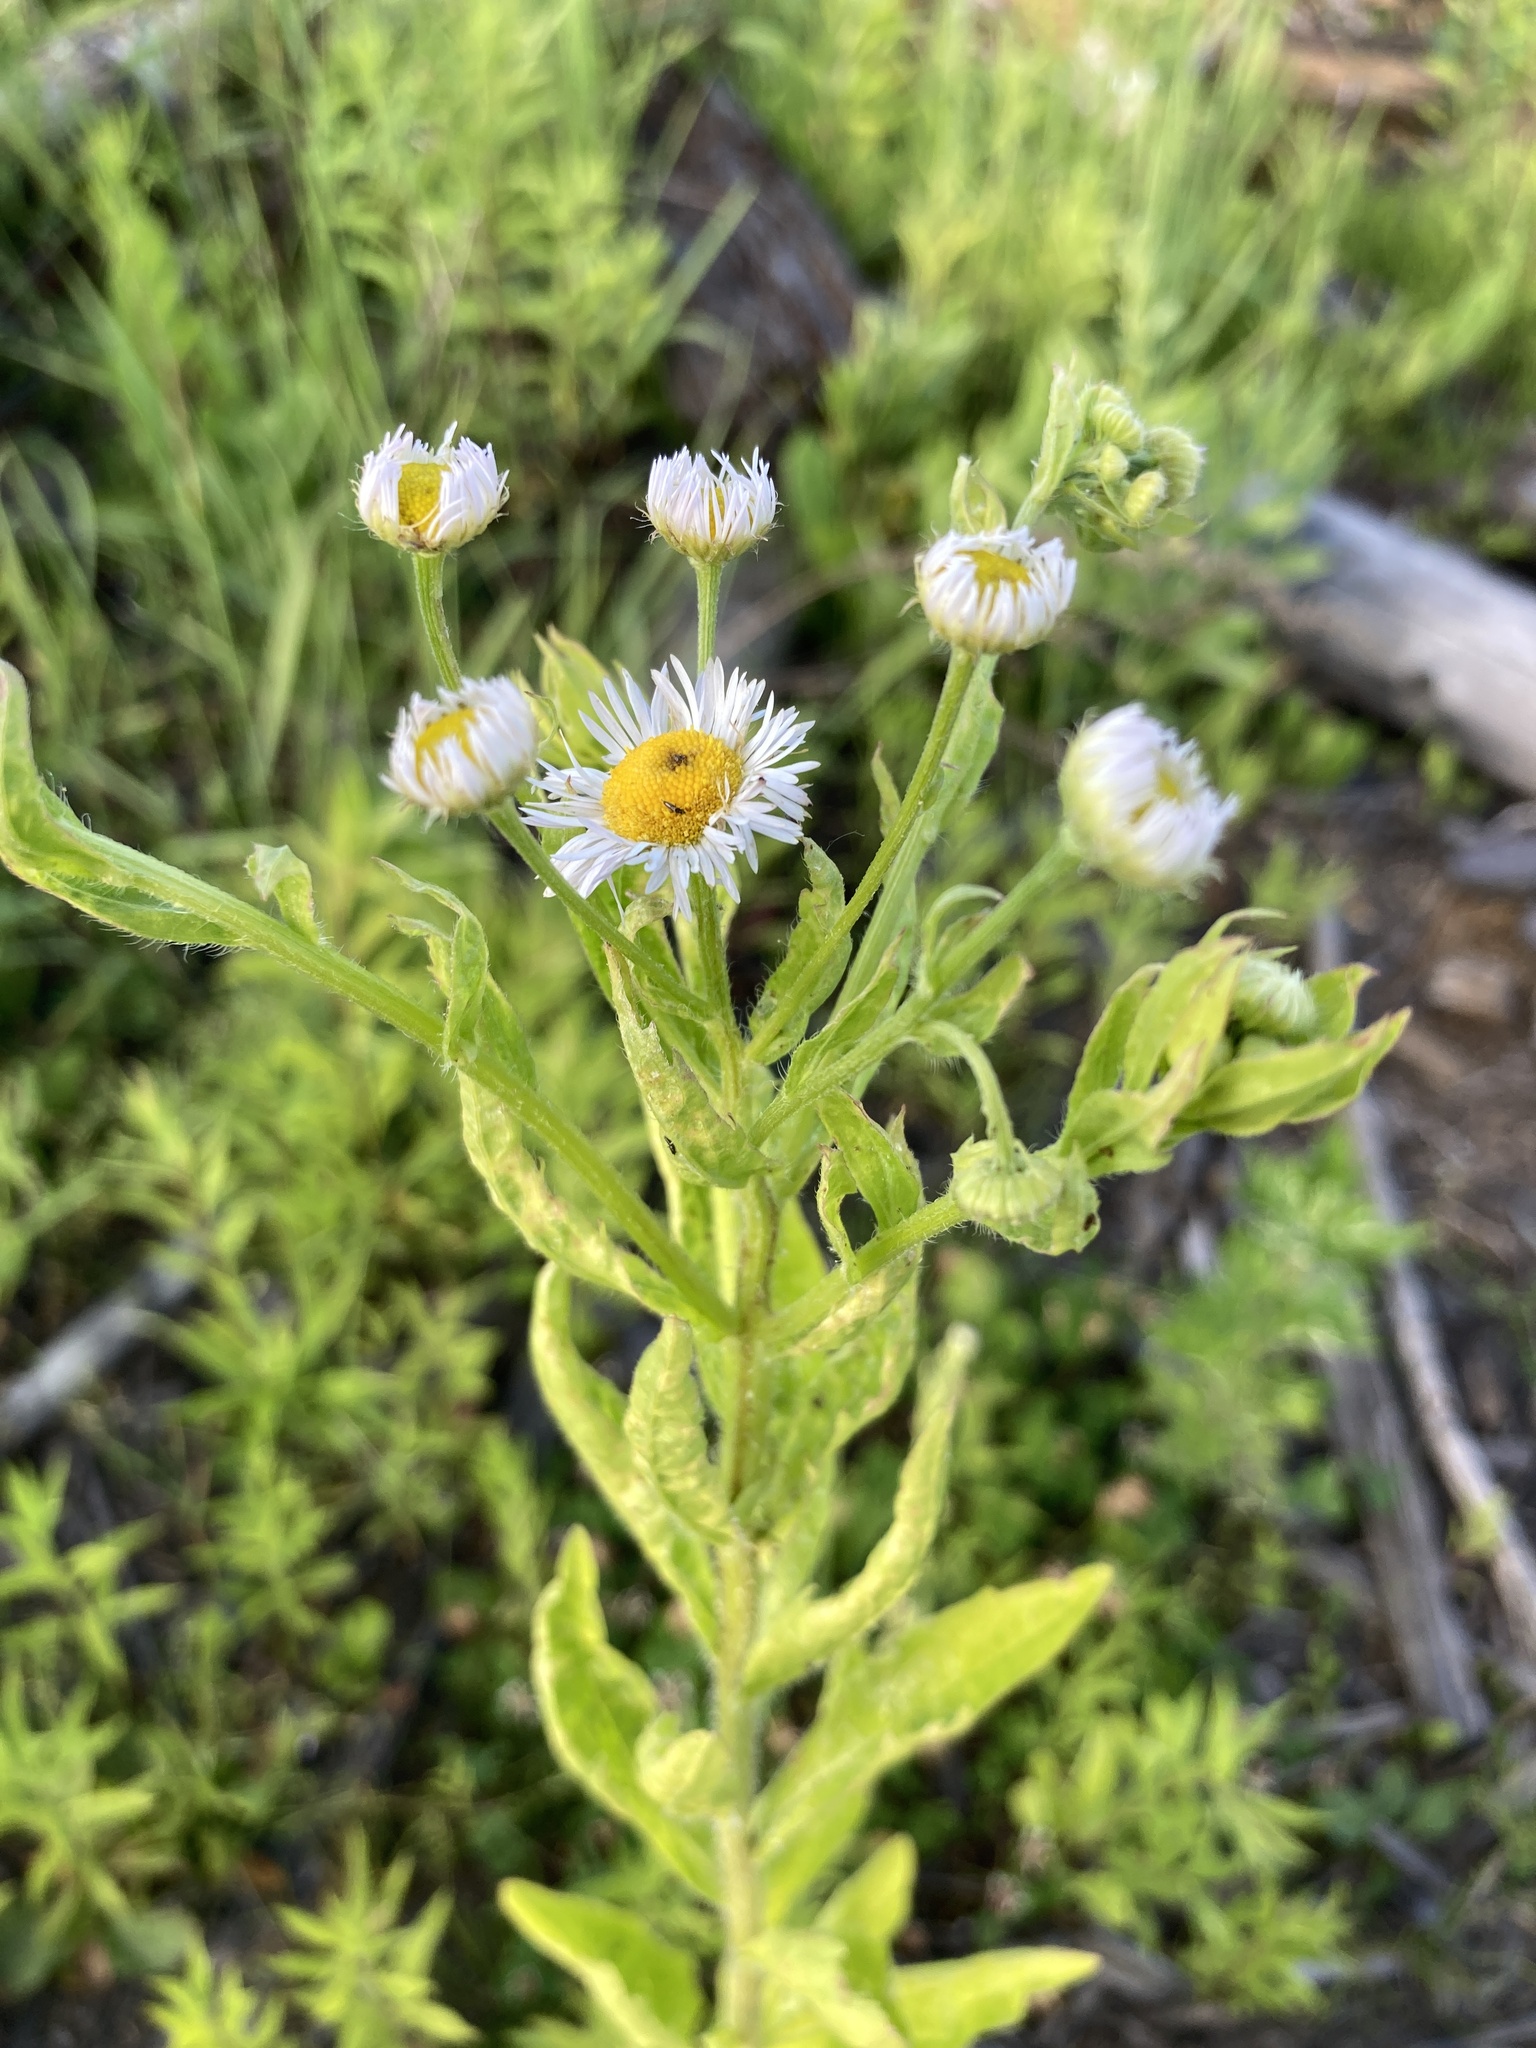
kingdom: Plantae
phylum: Tracheophyta
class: Magnoliopsida
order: Asterales
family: Asteraceae
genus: Erigeron
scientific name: Erigeron annuus
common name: Tall fleabane
